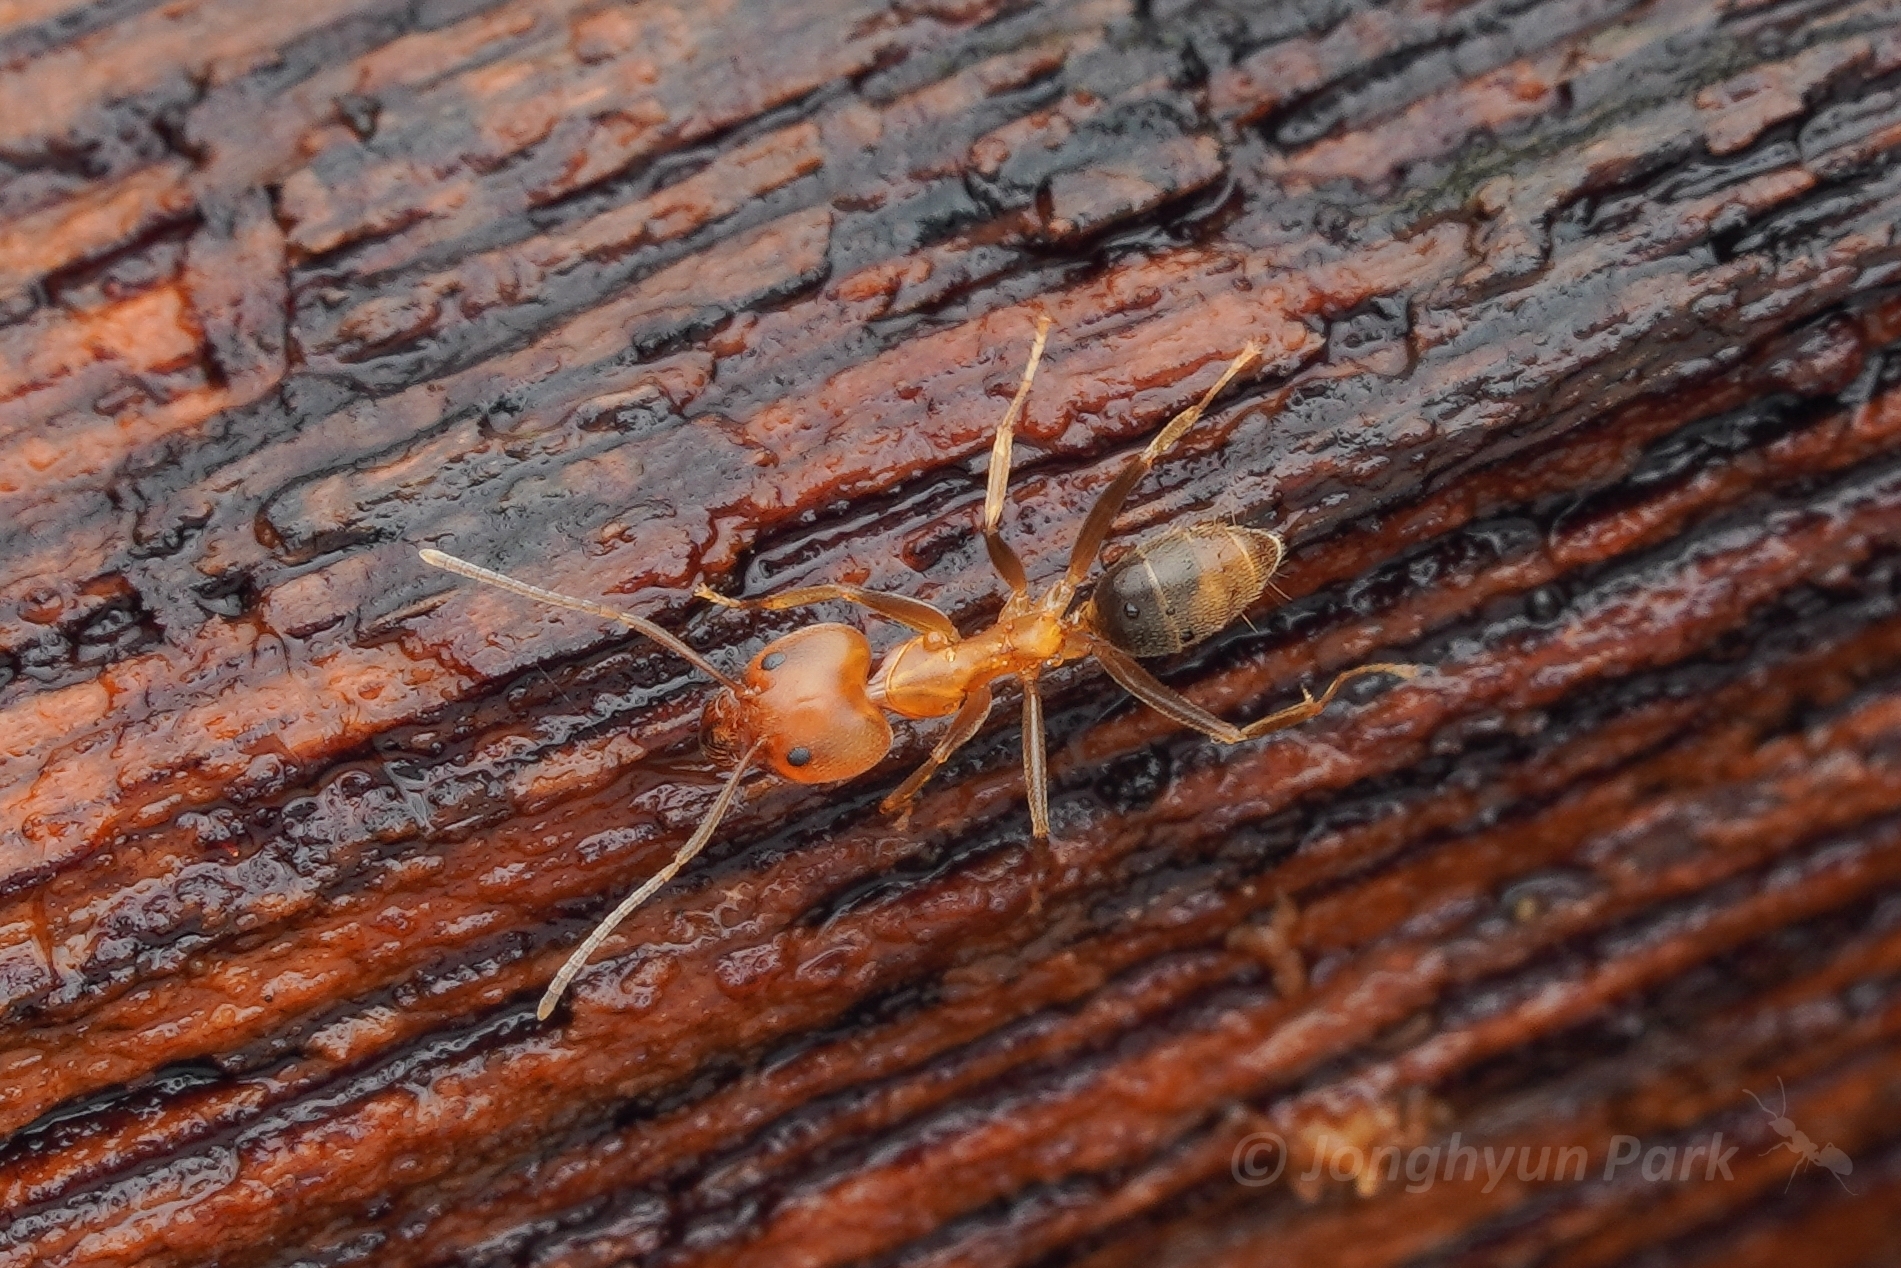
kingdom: Animalia
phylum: Arthropoda
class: Insecta
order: Hymenoptera
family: Formicidae
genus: Tapinoma
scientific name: Tapinoma flavidum
